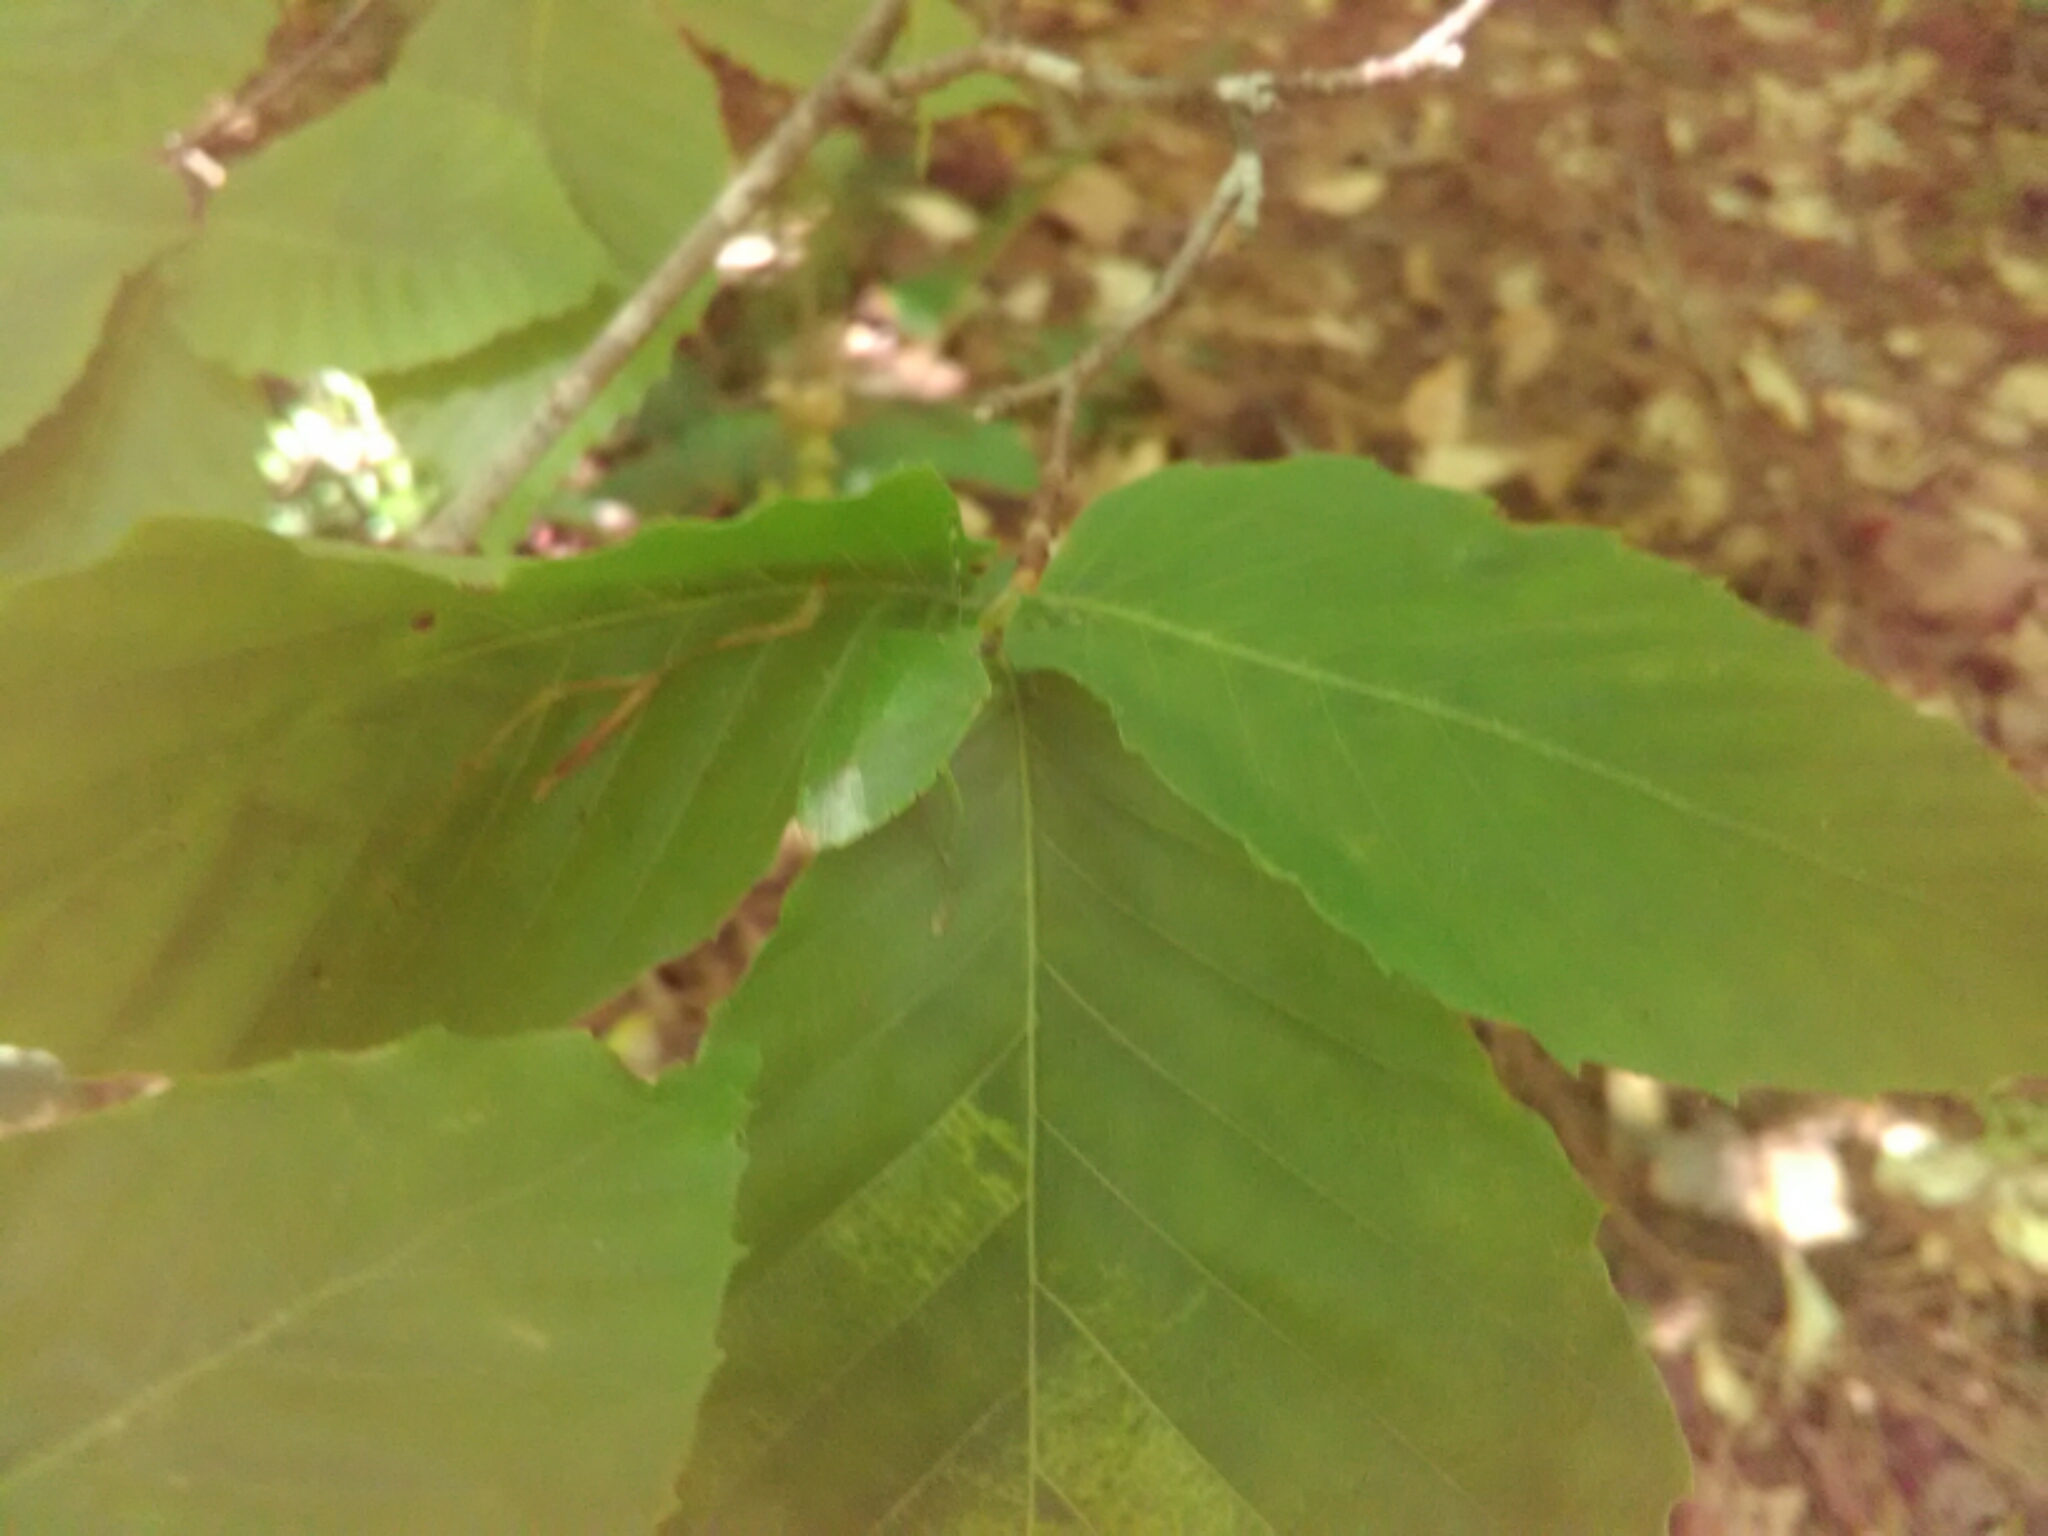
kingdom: Animalia
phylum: Arthropoda
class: Insecta
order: Hemiptera
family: Pentatomidae
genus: Chinavia
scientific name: Chinavia hilaris
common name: Green stink bug
